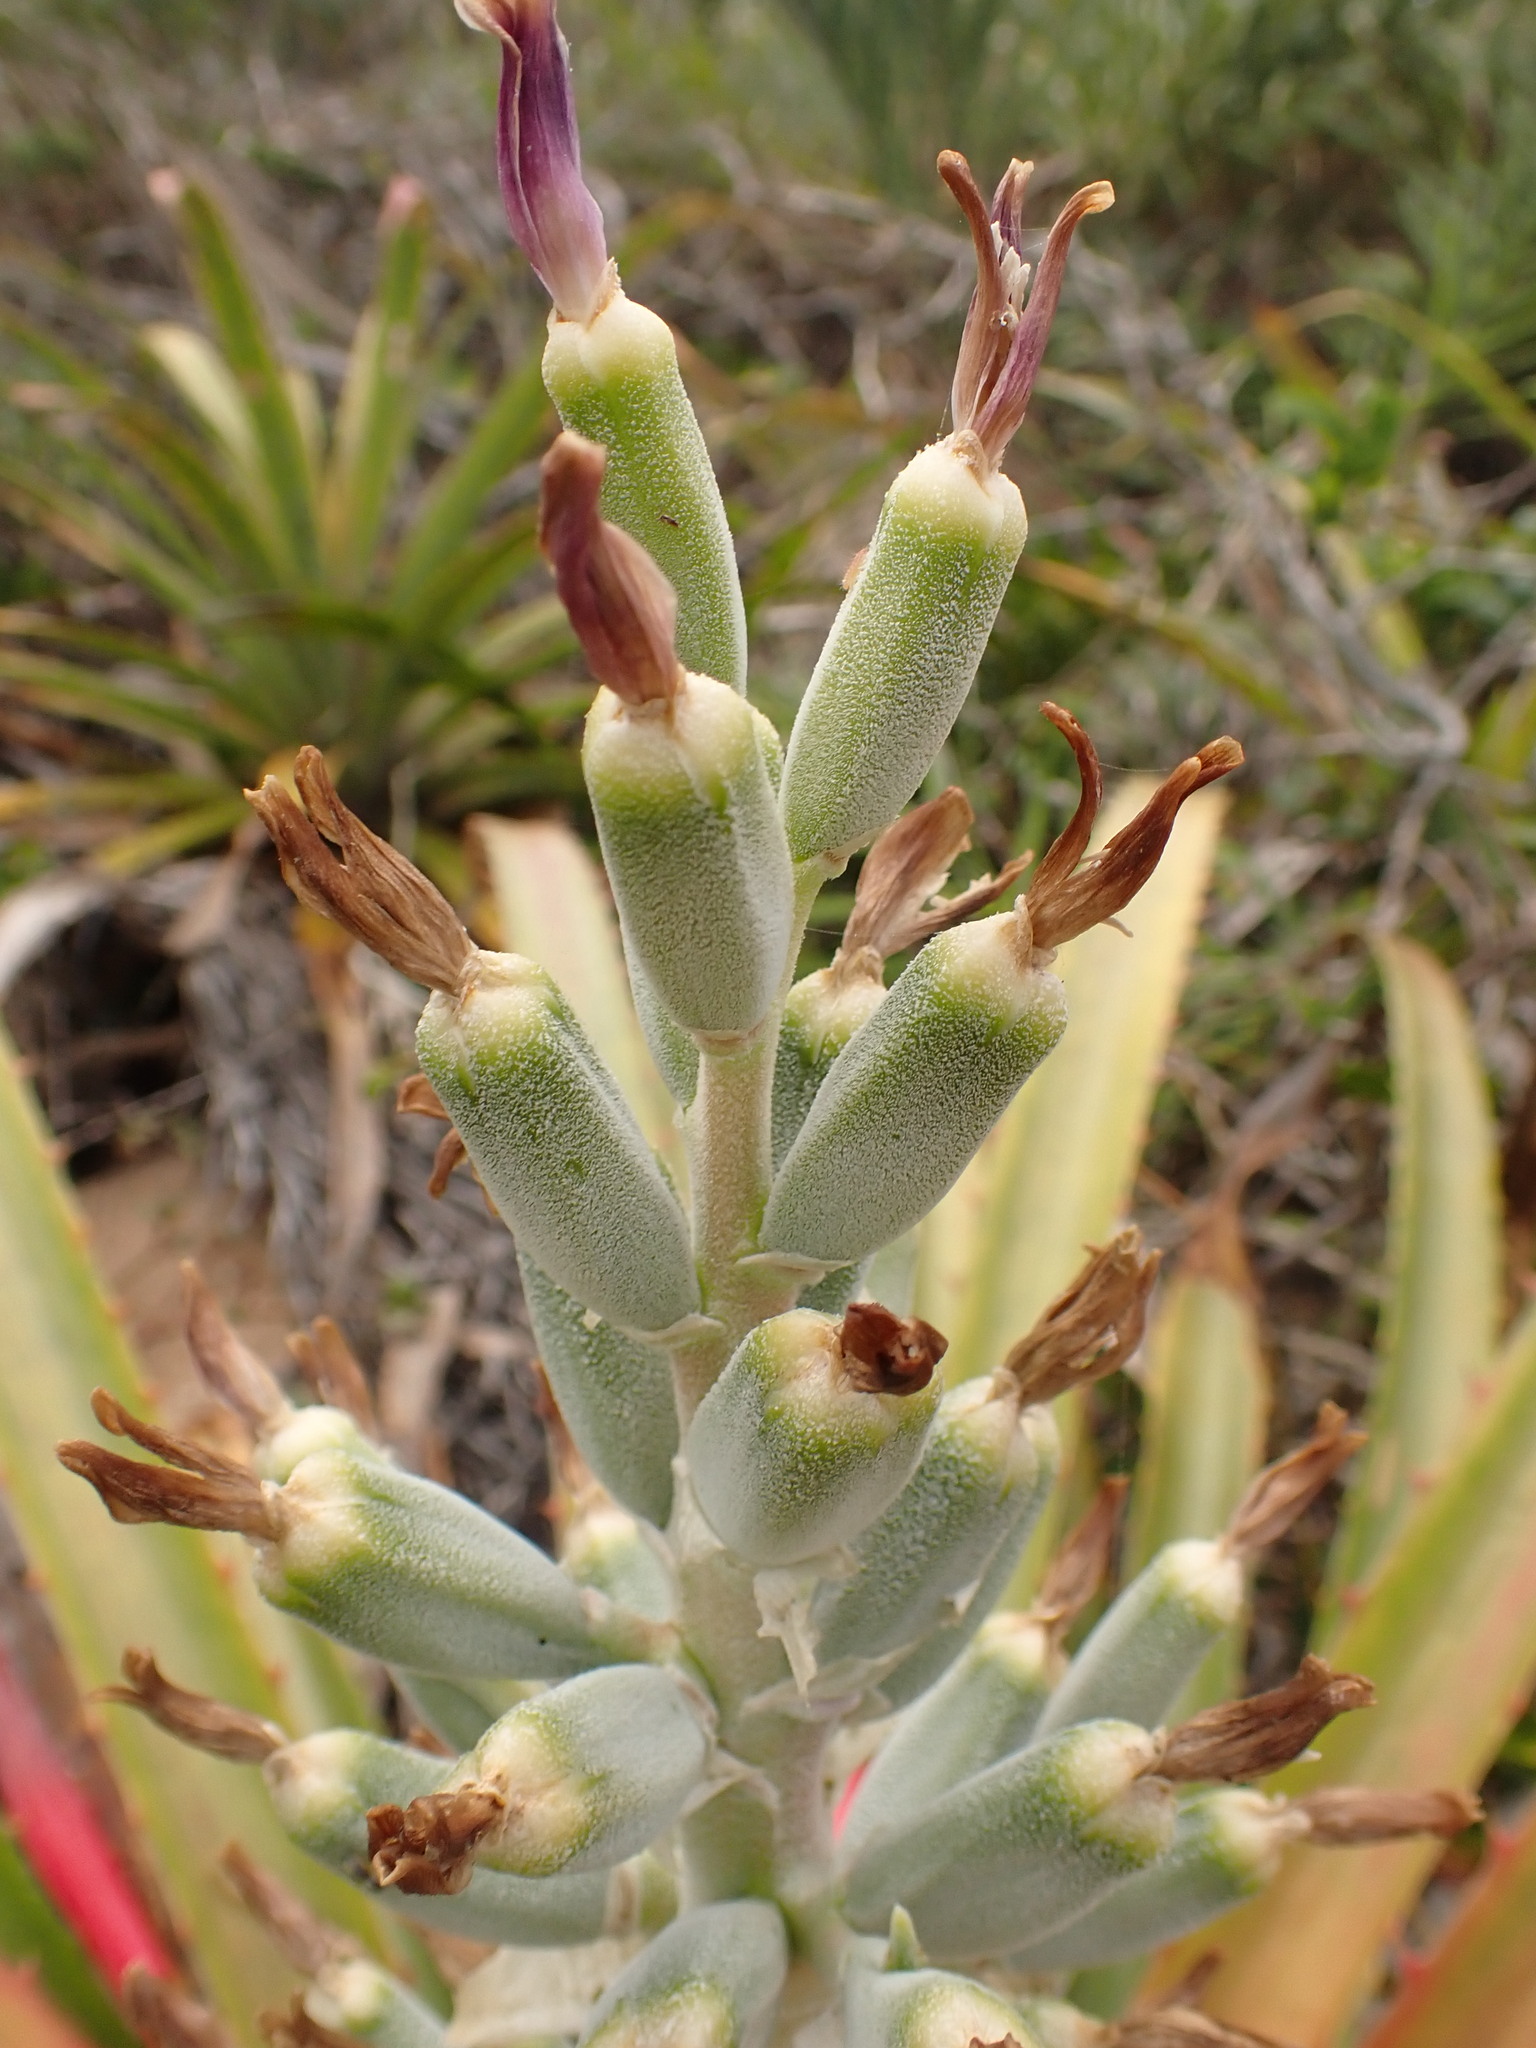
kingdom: Plantae
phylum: Tracheophyta
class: Liliopsida
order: Poales
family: Bromeliaceae
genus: Bromelia
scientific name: Bromelia antiacantha
